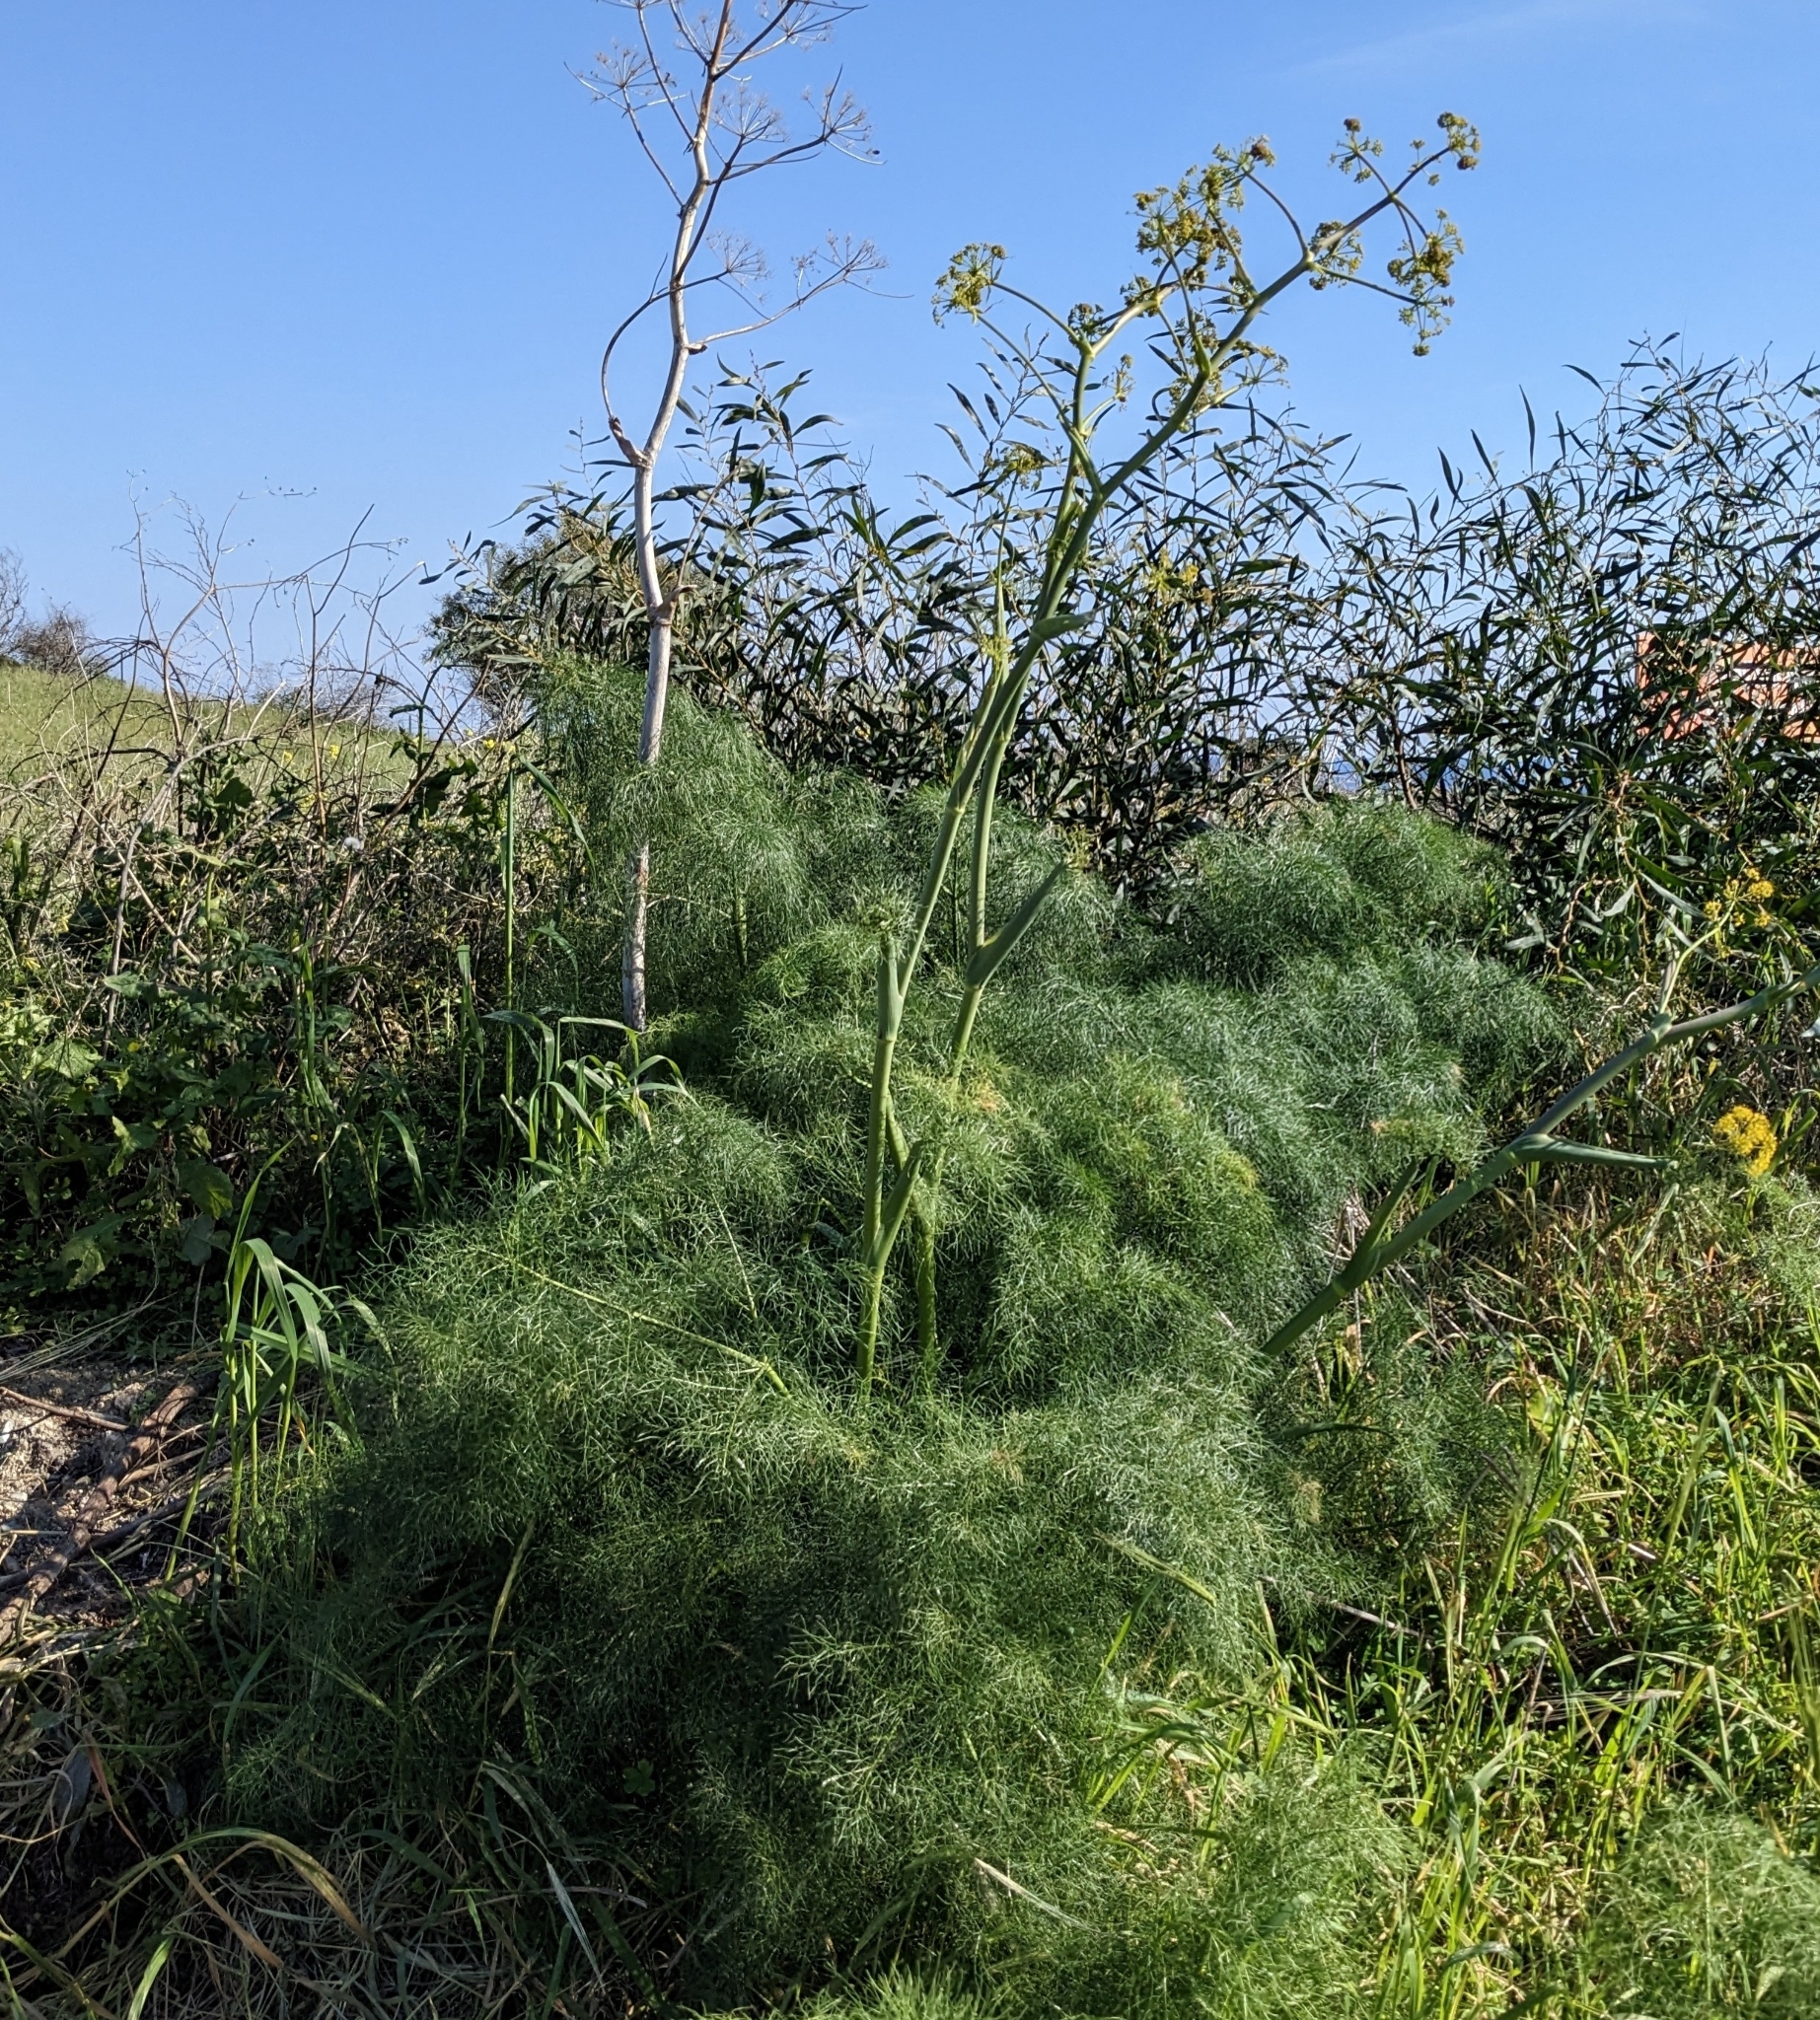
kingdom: Plantae
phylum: Tracheophyta
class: Magnoliopsida
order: Apiales
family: Apiaceae
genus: Ferula
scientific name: Ferula communis
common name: Giant fennel
